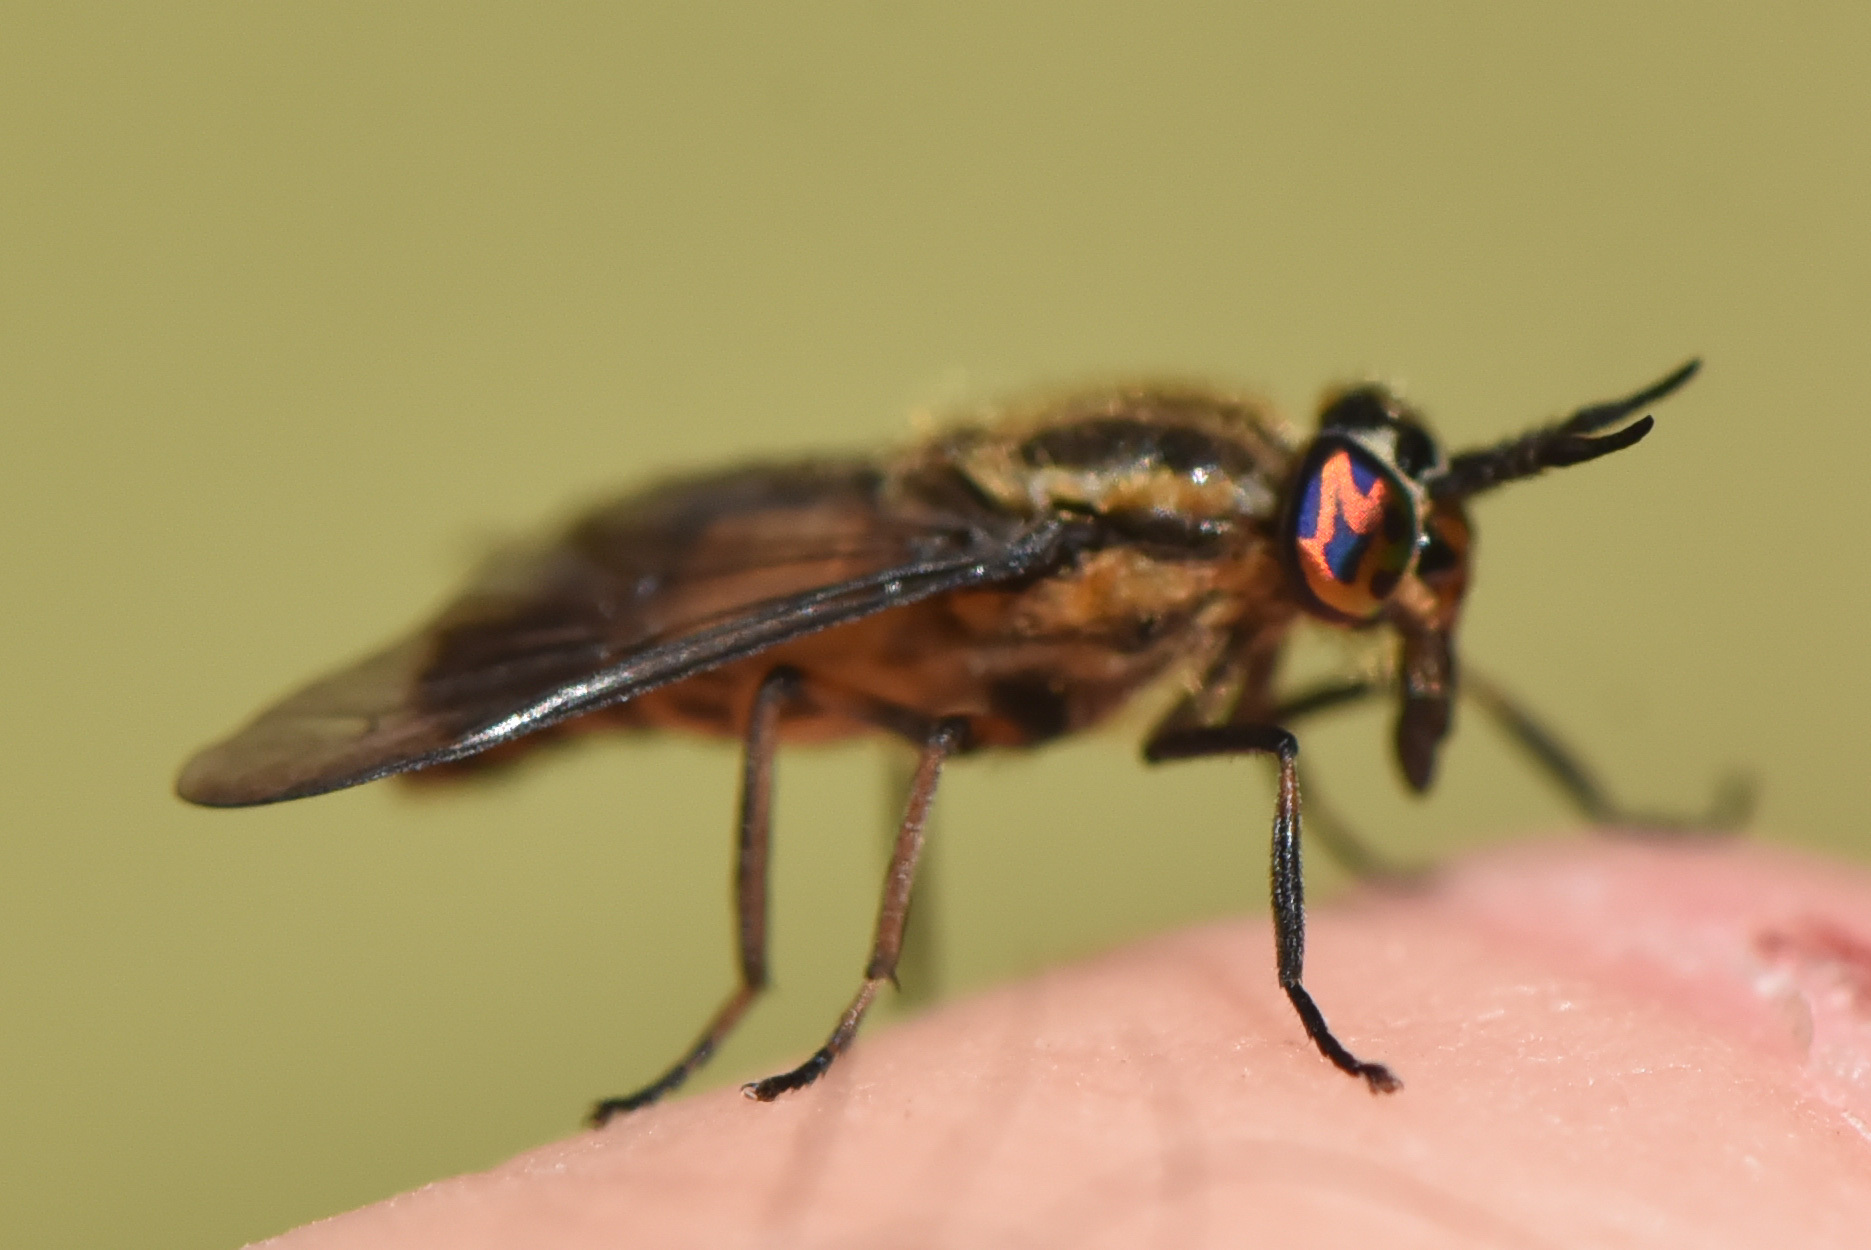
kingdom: Animalia
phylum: Arthropoda
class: Insecta
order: Diptera
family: Tabanidae
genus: Chrysops
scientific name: Chrysops proclivis
